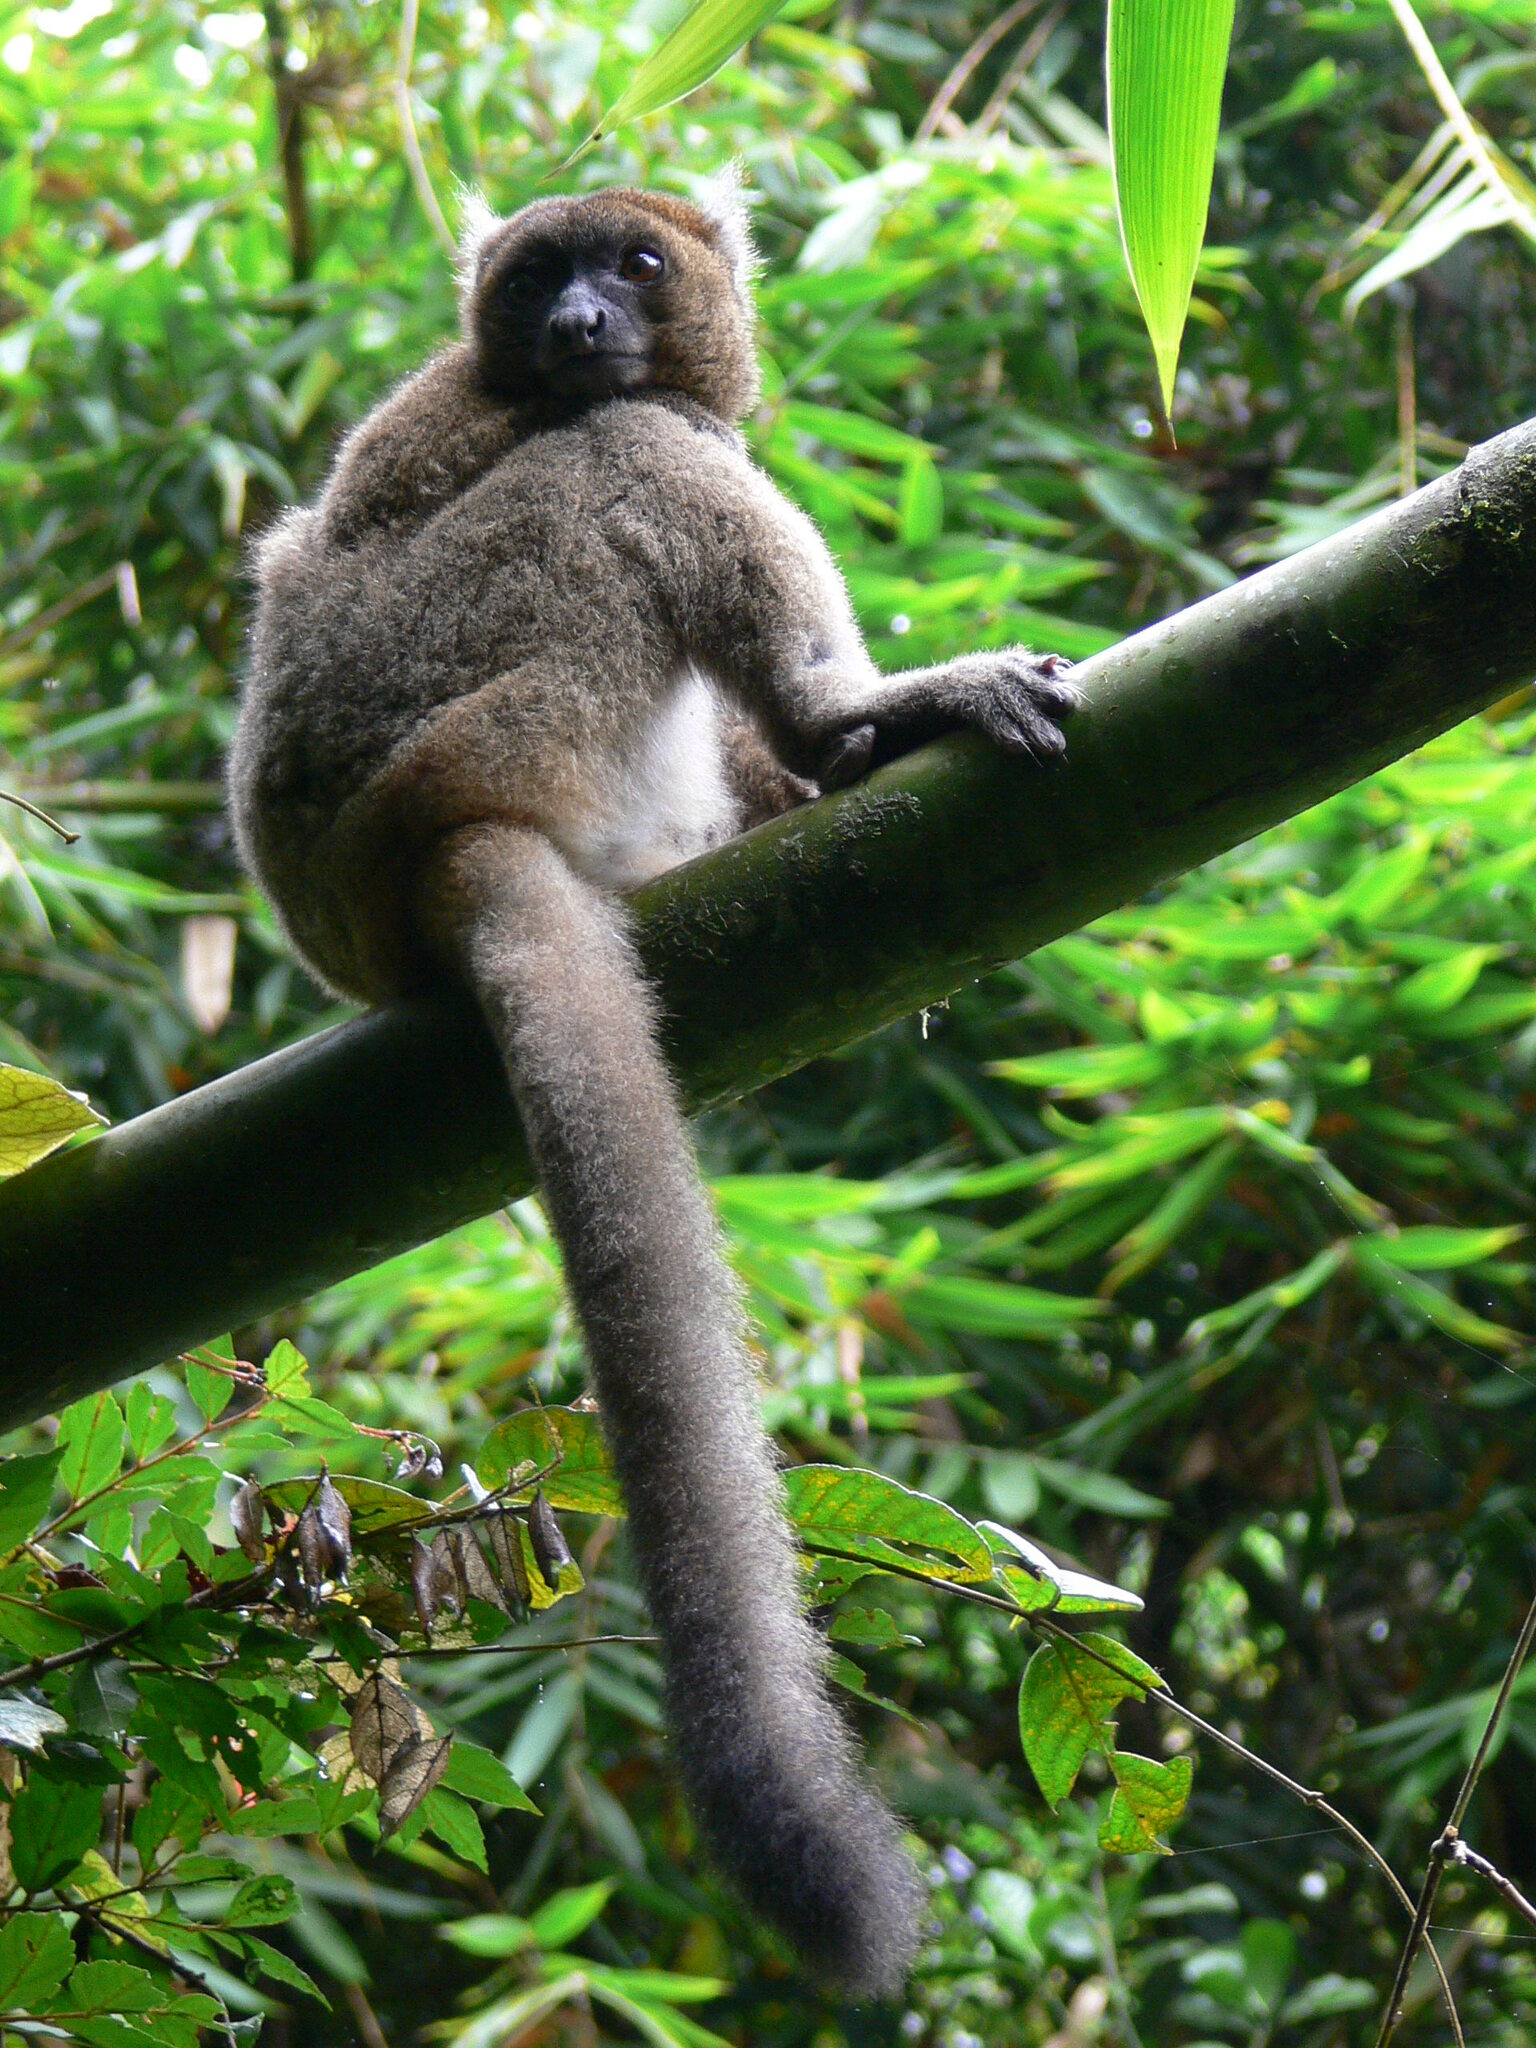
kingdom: Animalia
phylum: Chordata
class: Mammalia
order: Primates
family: Lemuridae
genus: Prolemur
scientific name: Prolemur simus
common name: Greater bamboo lemur
